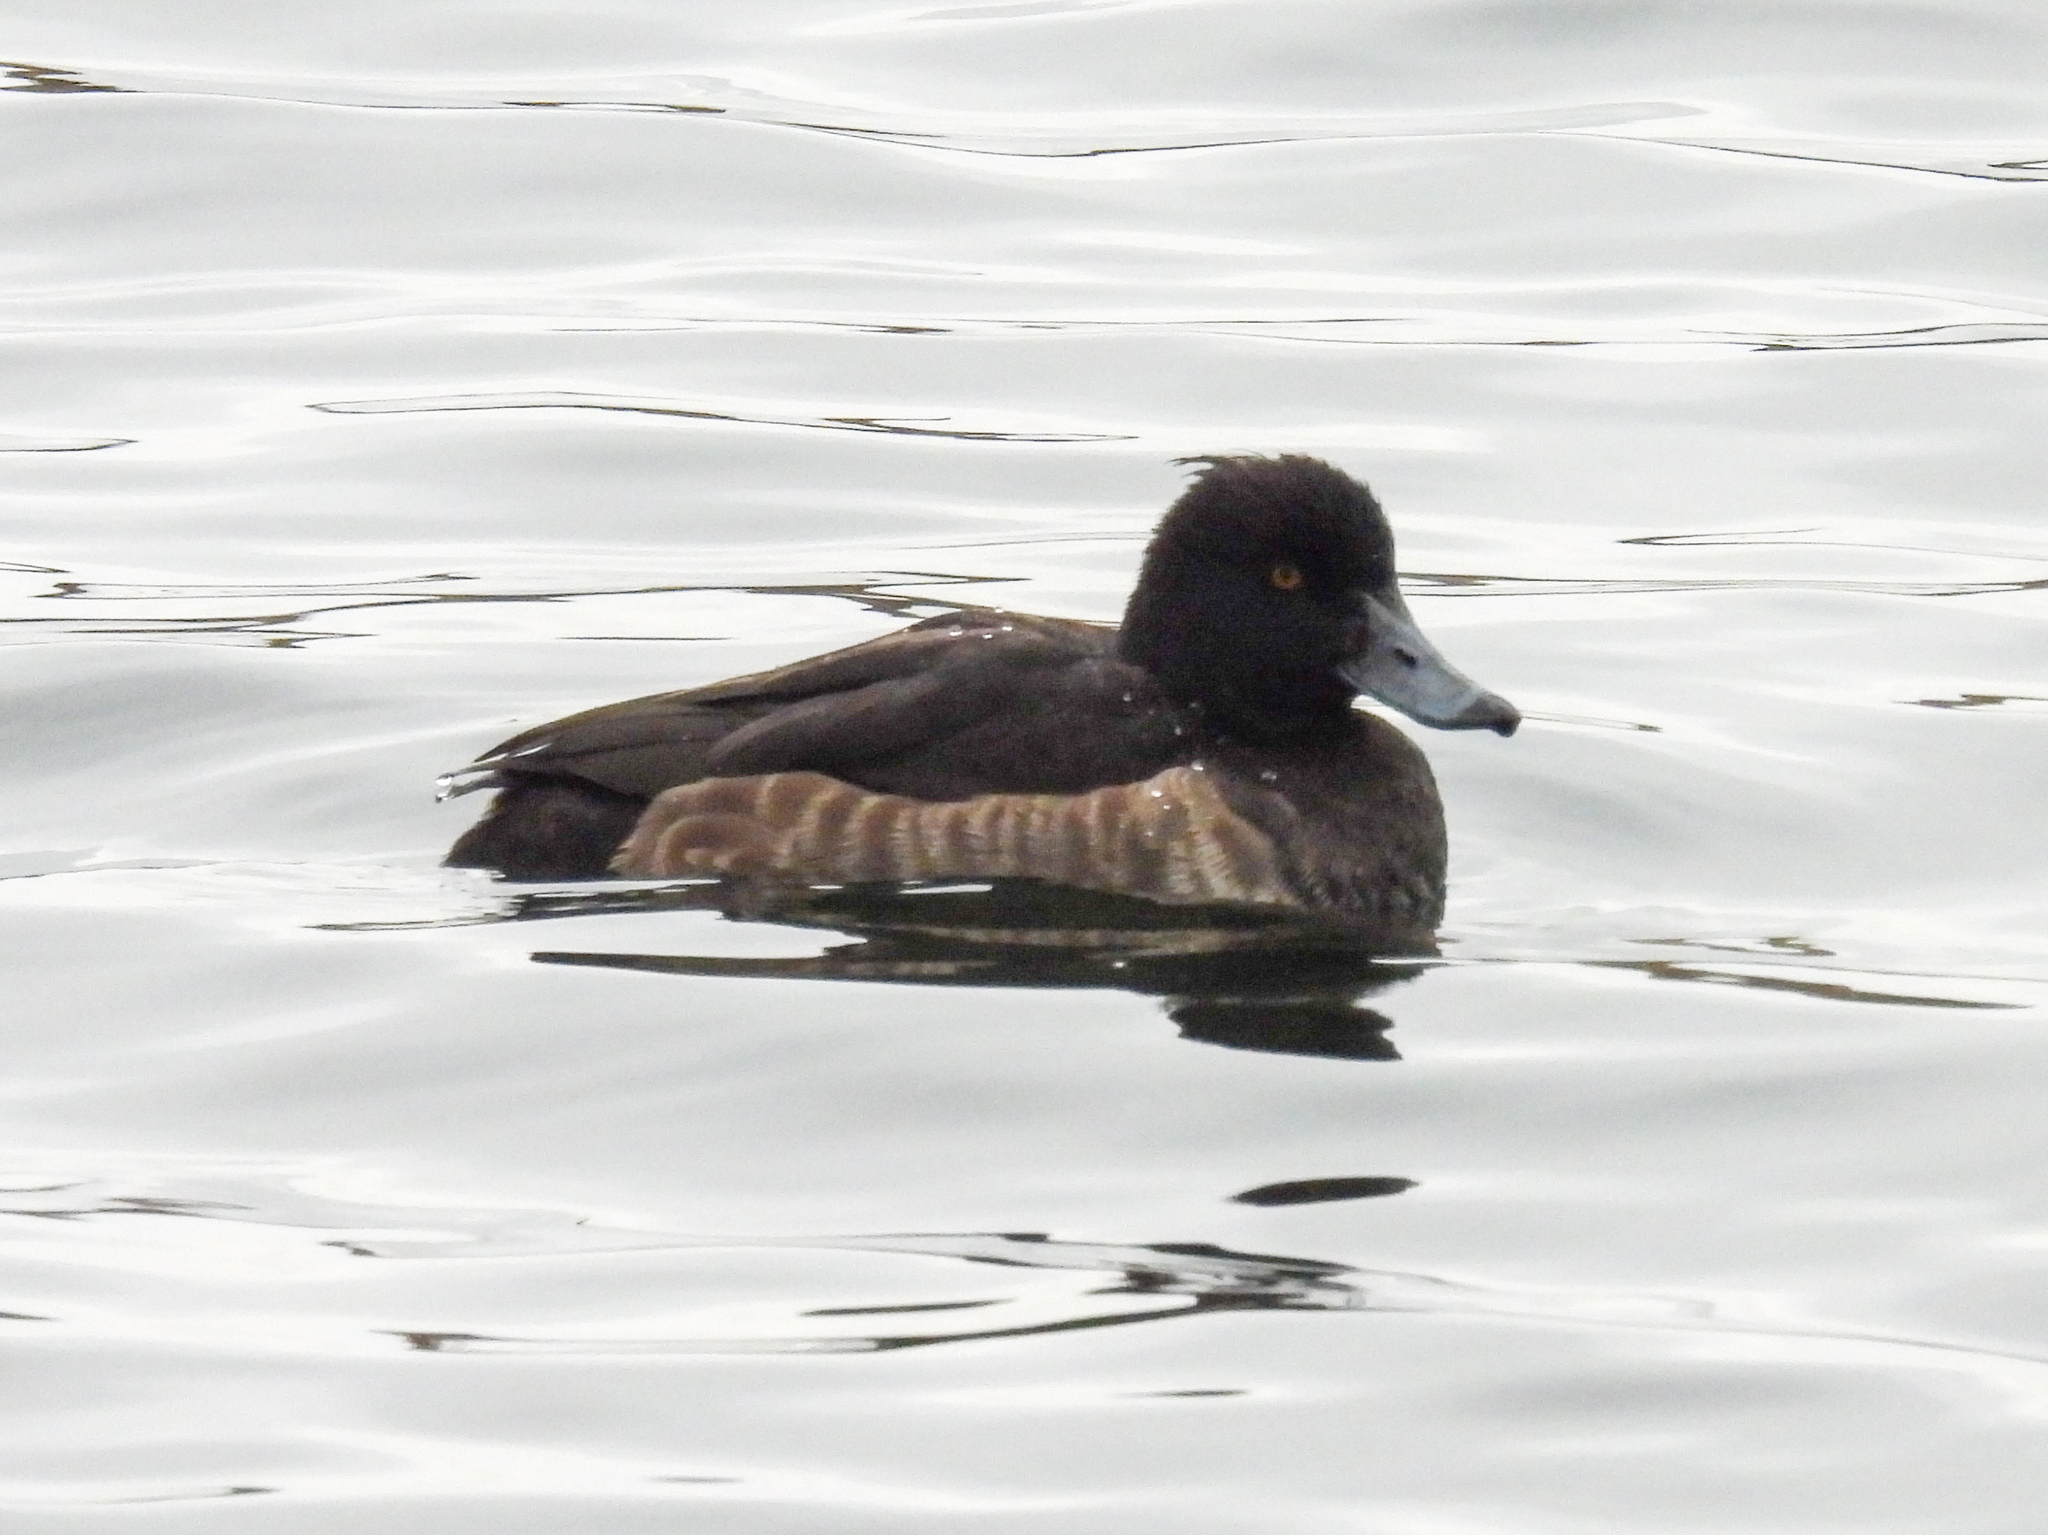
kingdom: Animalia
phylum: Chordata
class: Aves
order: Anseriformes
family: Anatidae
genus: Aythya
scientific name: Aythya fuligula
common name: Tufted duck
